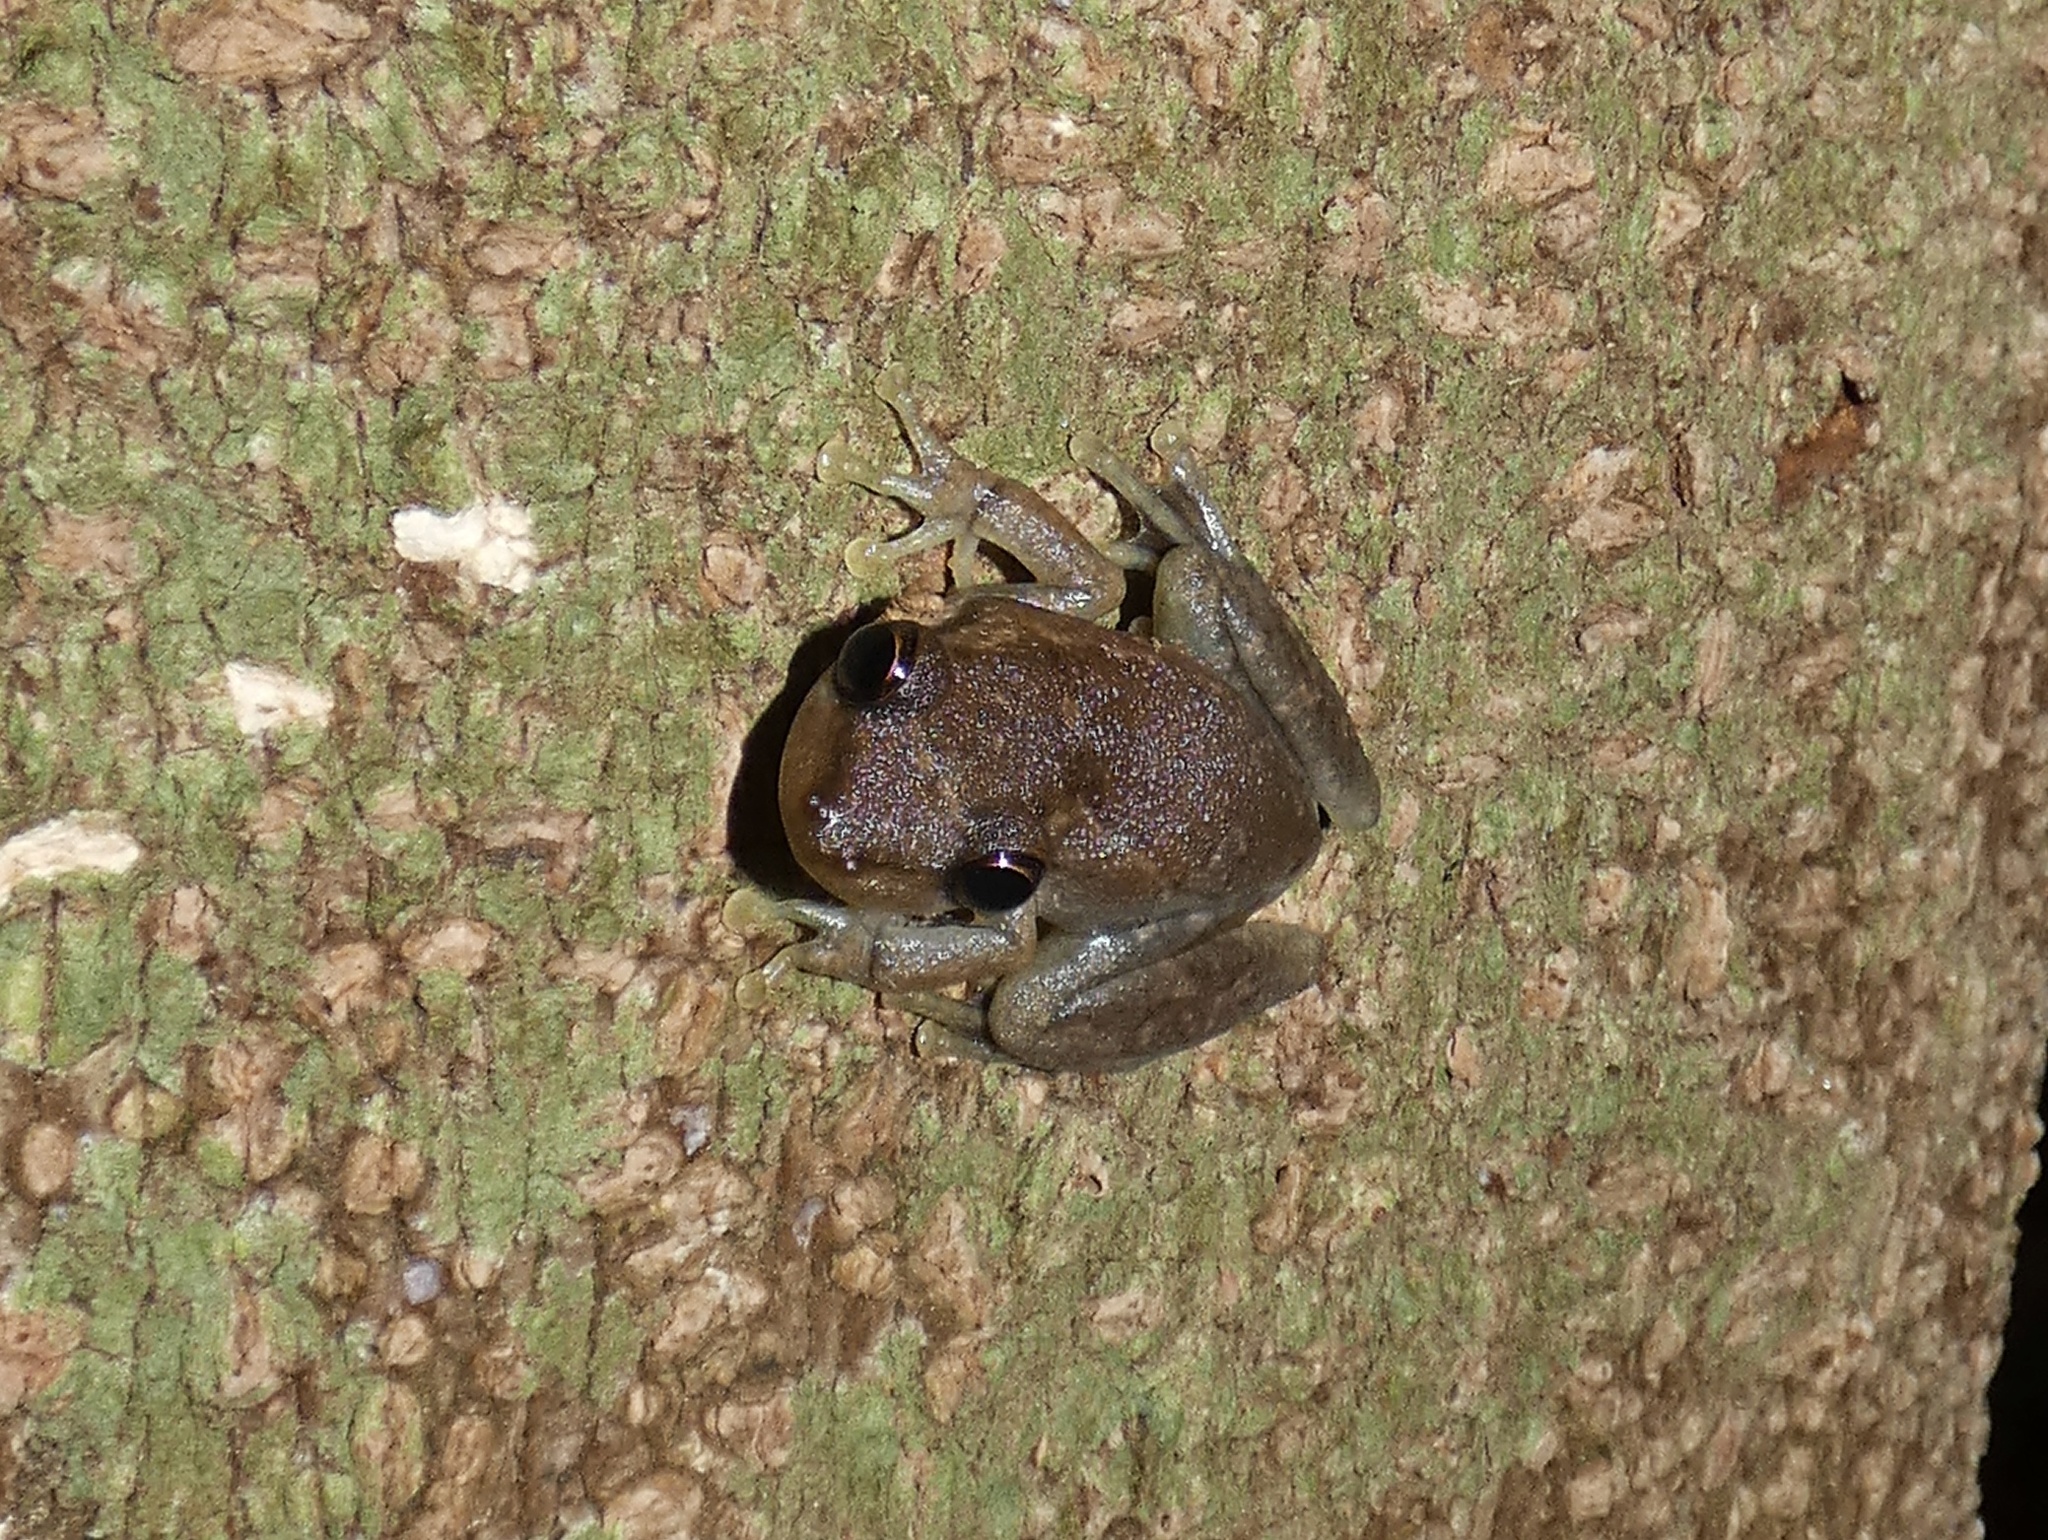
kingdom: Animalia
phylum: Chordata
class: Amphibia
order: Anura
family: Hylidae
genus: Scinax
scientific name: Scinax ruber
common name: Red snouted treefrog
